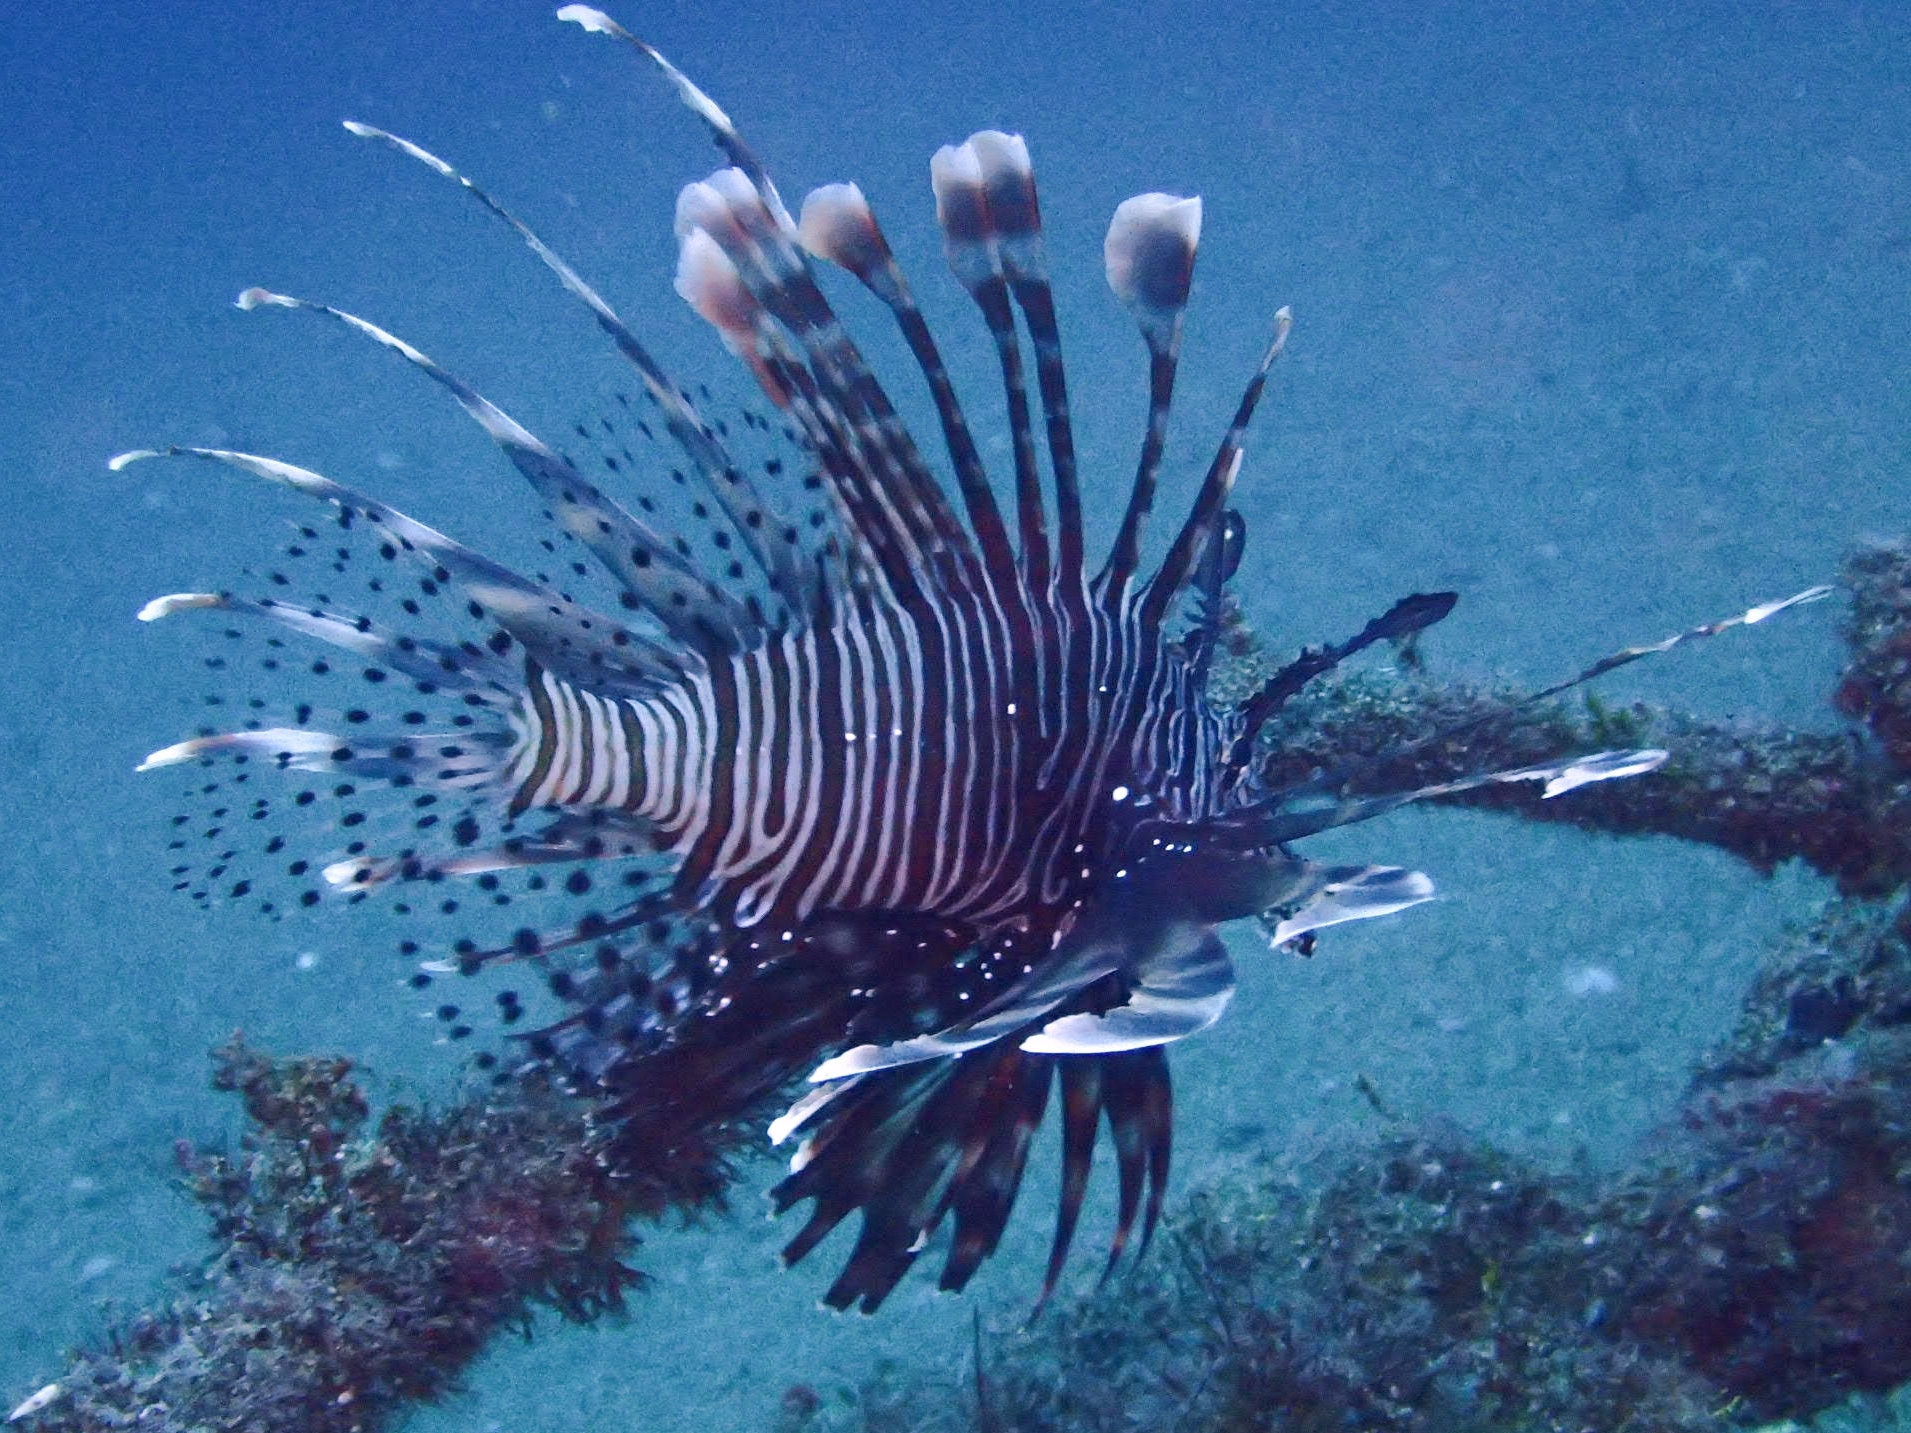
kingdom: Animalia
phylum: Chordata
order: Scorpaeniformes
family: Scorpaenidae
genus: Pterois
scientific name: Pterois volitans
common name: Lionfish
